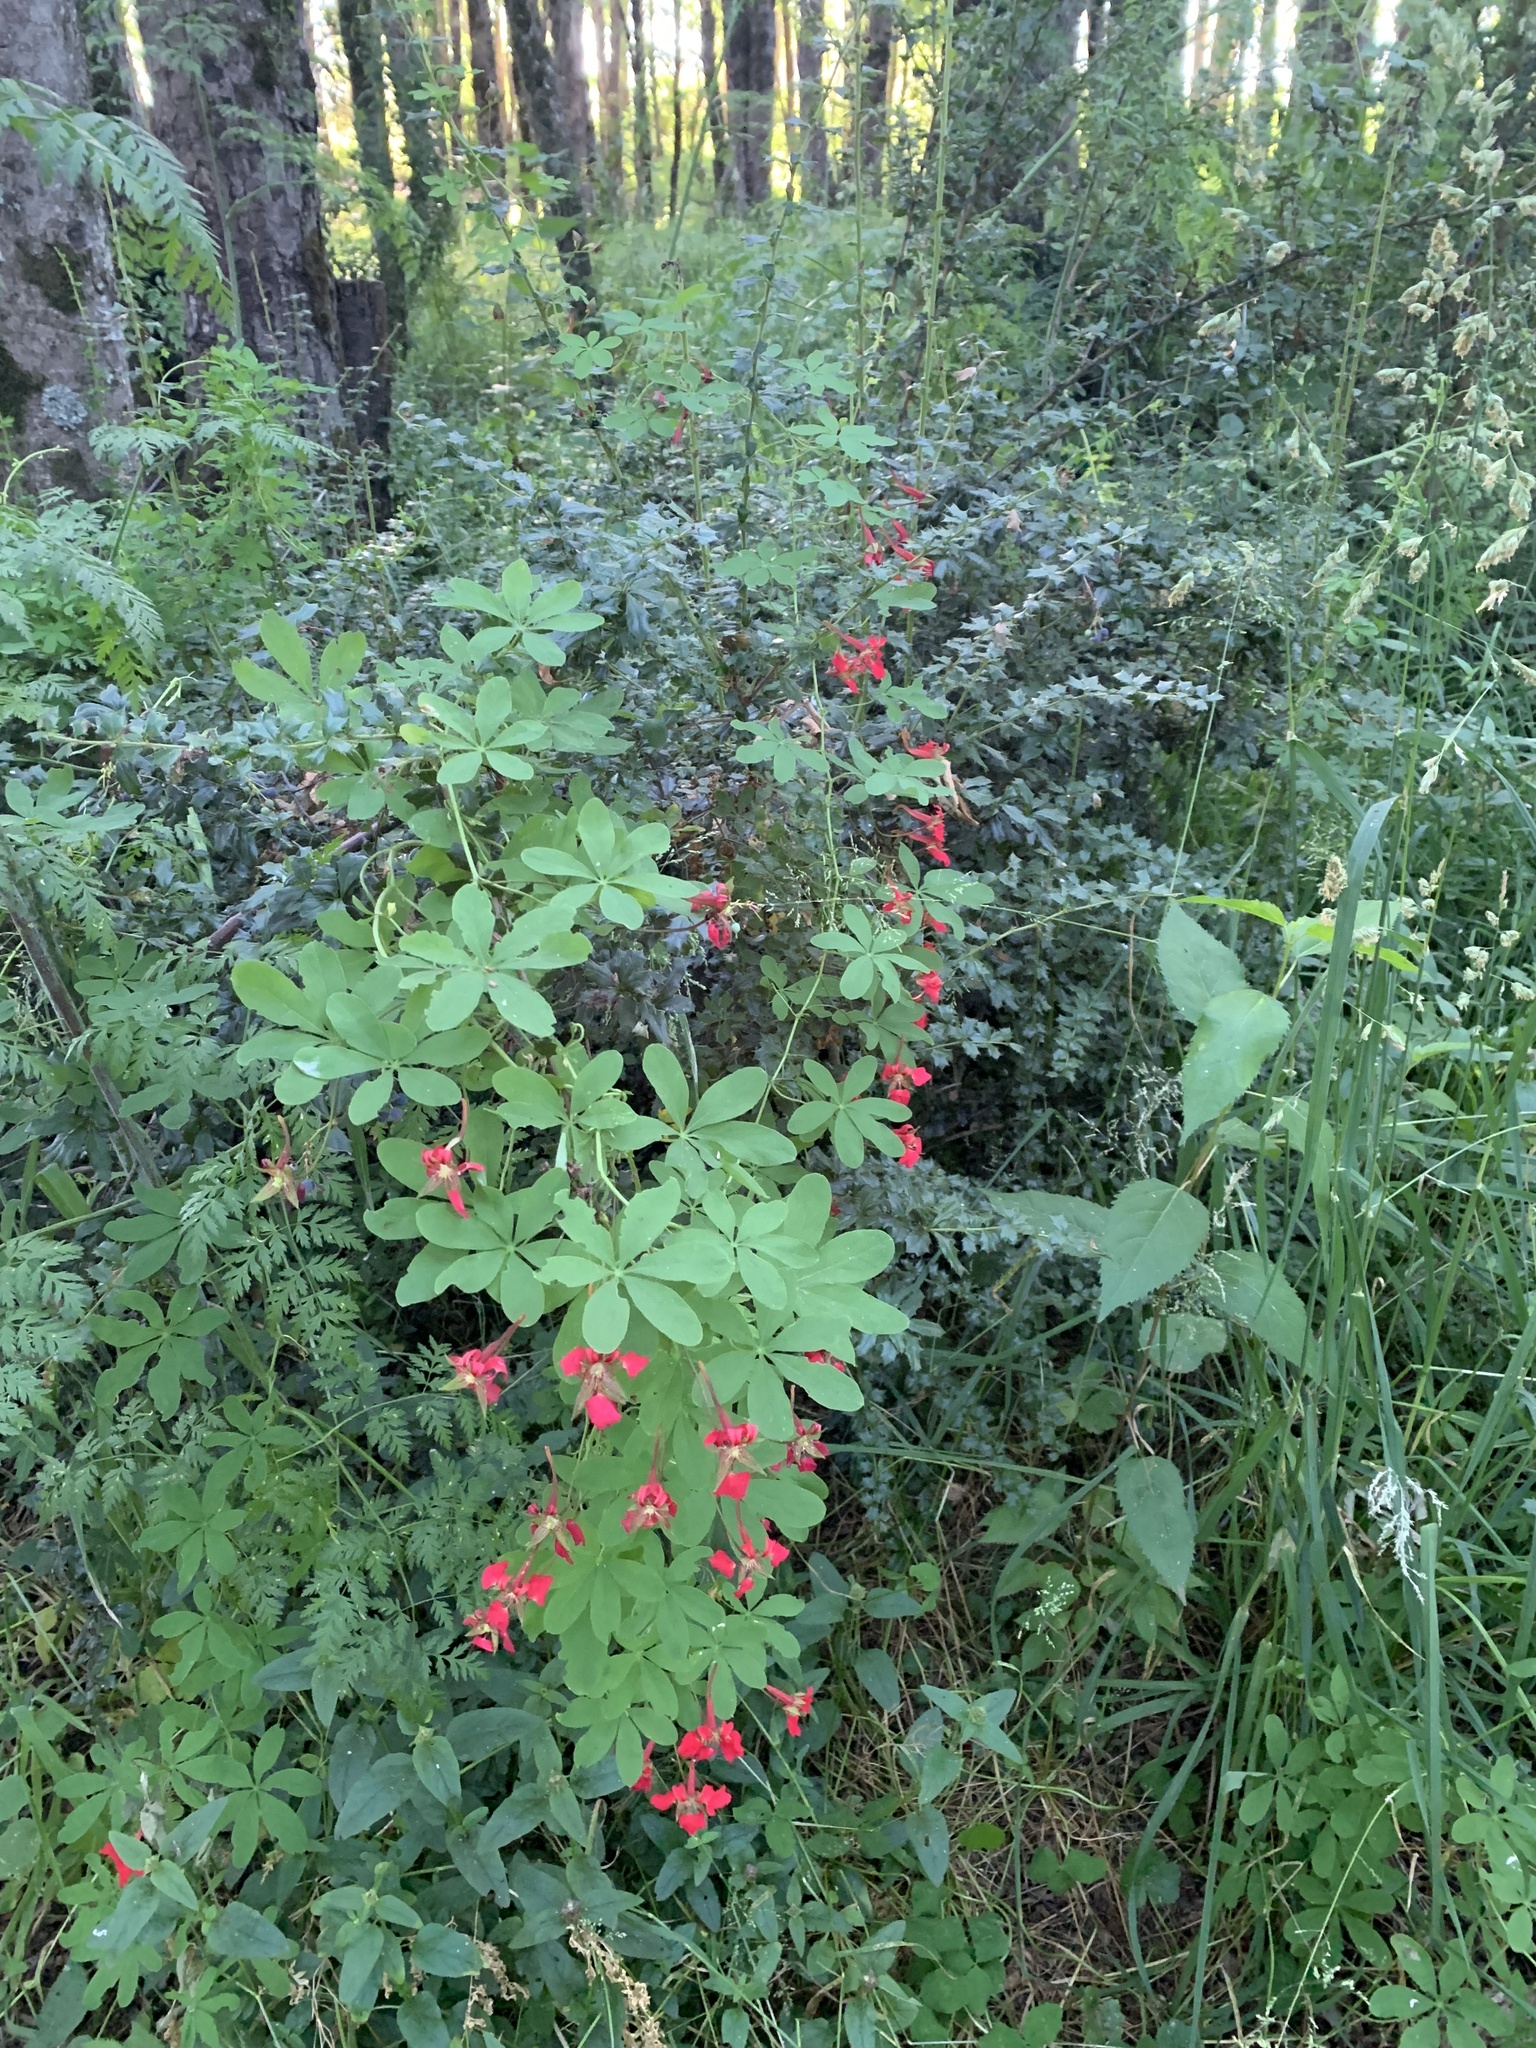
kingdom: Plantae
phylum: Tracheophyta
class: Magnoliopsida
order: Brassicales
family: Tropaeolaceae
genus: Tropaeolum
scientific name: Tropaeolum speciosum
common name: Flame nasturtium
